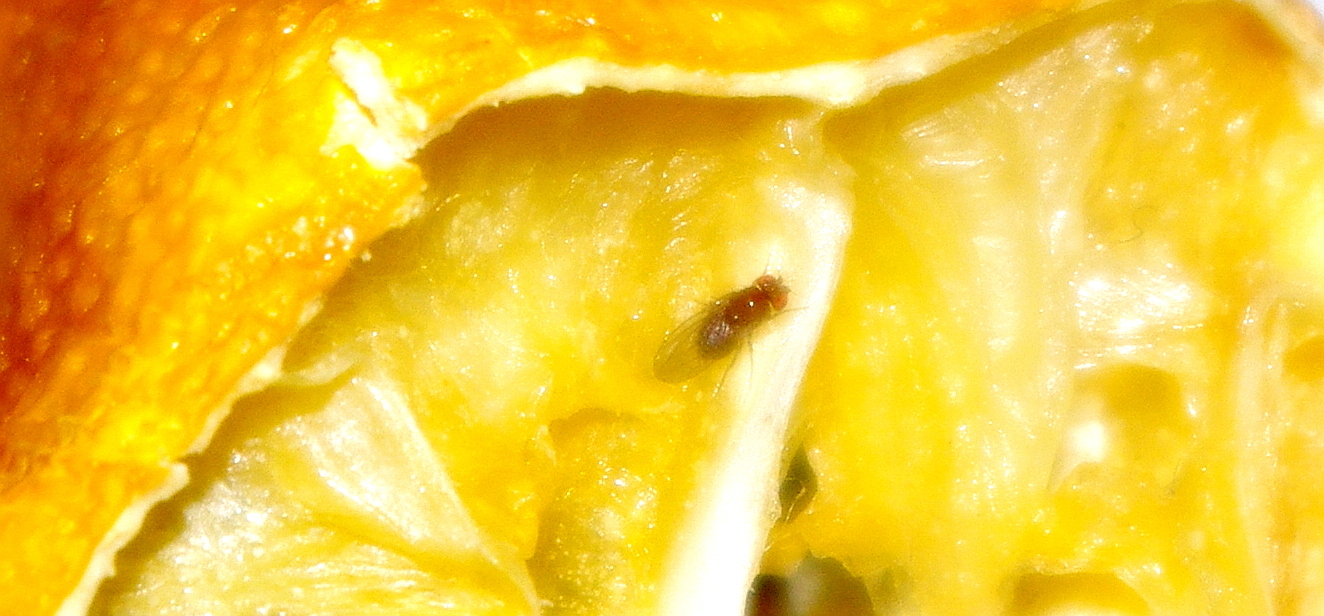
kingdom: Animalia
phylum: Arthropoda
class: Insecta
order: Diptera
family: Drosophilidae
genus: Drosophila
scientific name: Drosophila
